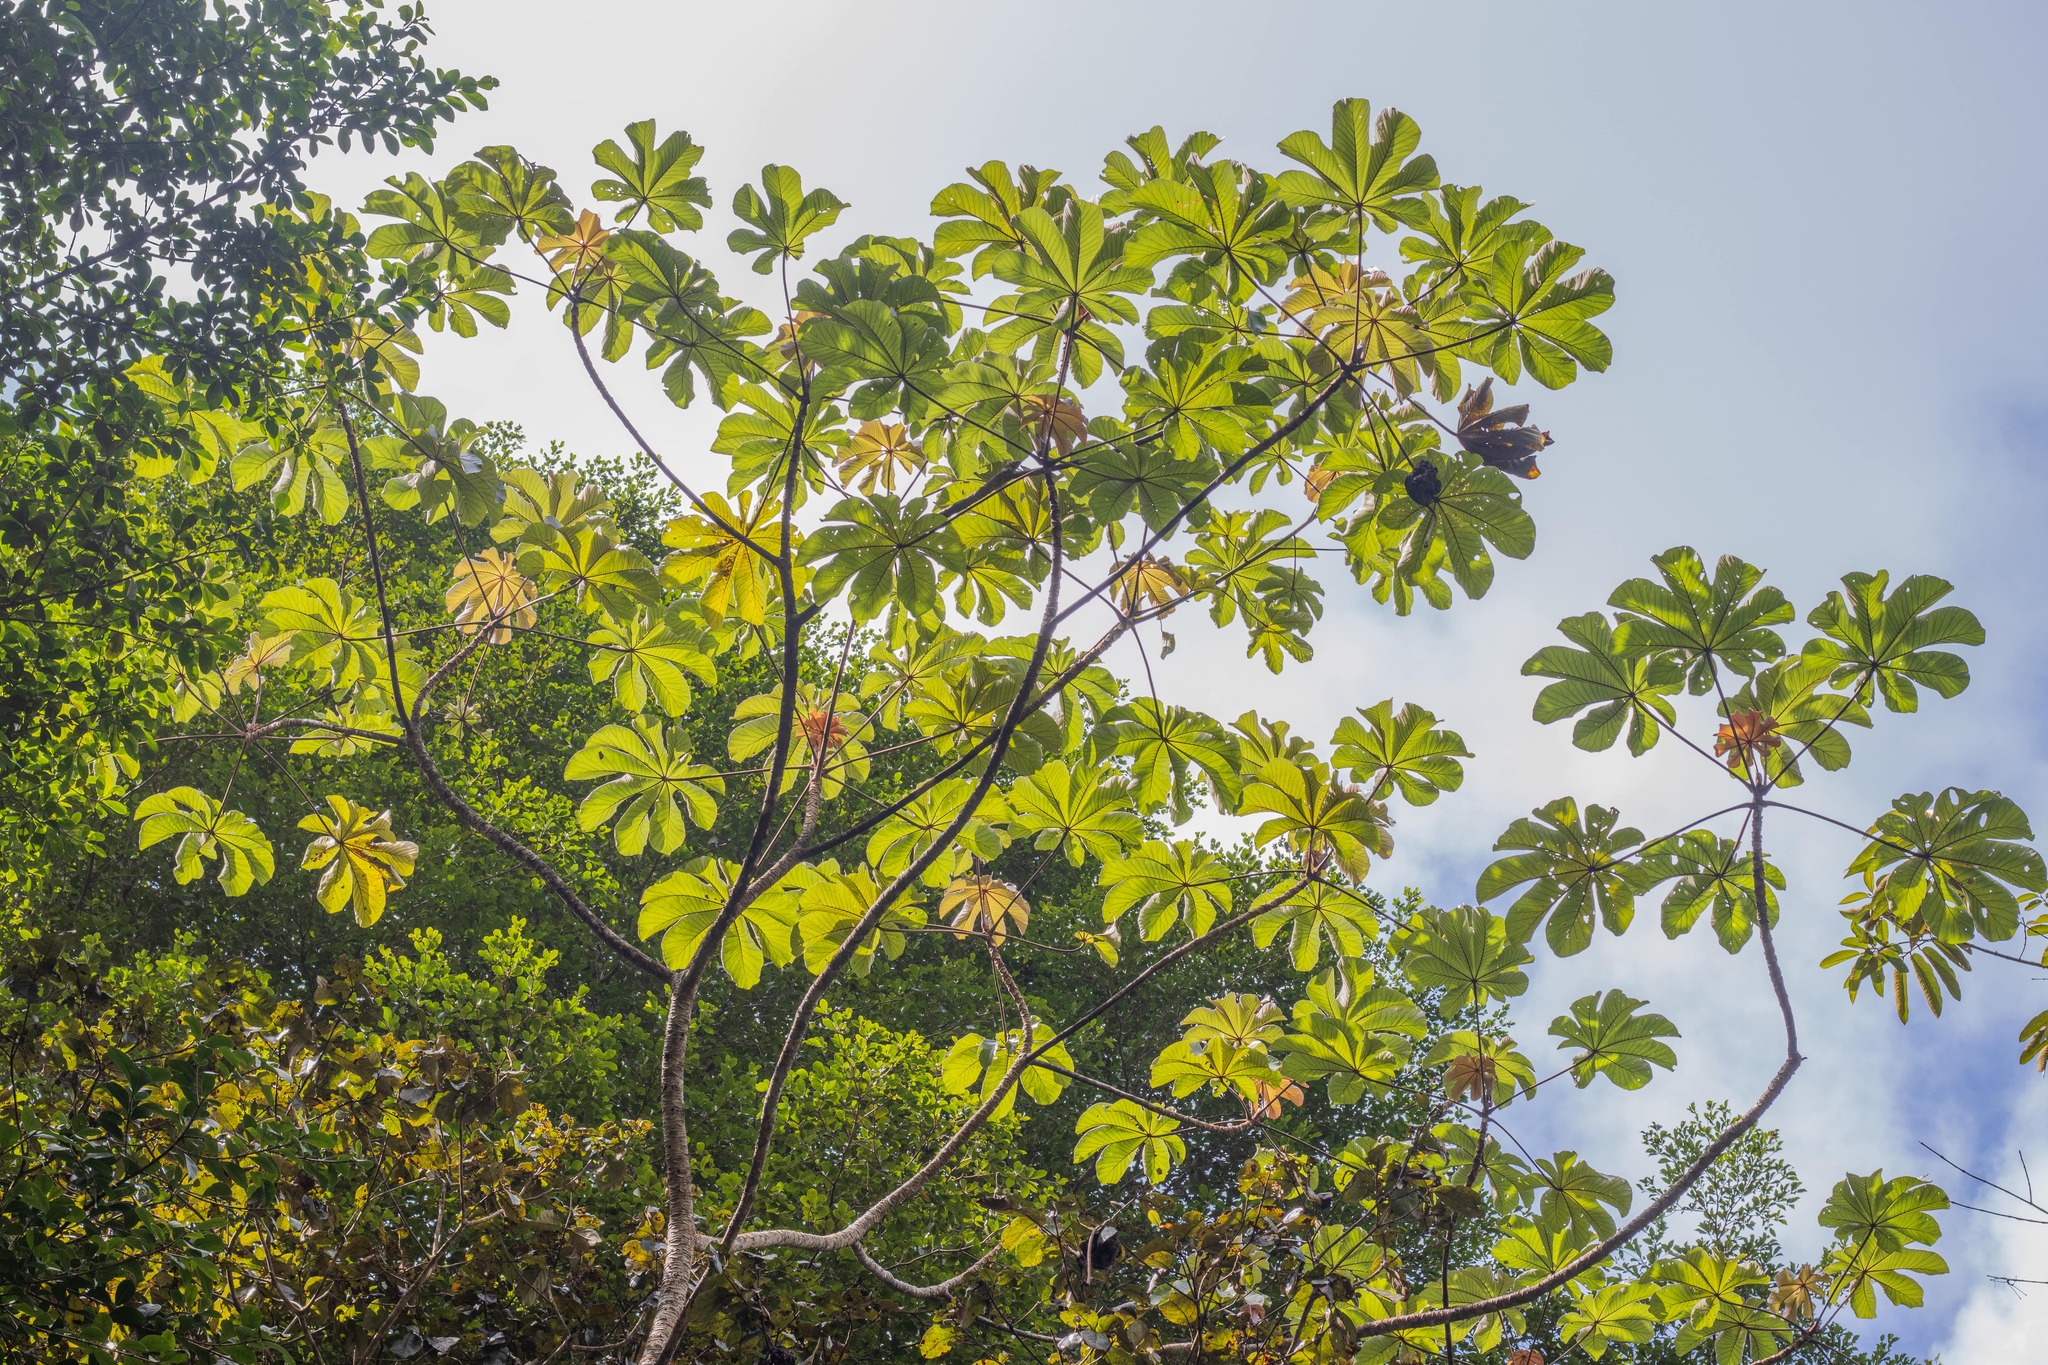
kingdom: Plantae
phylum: Tracheophyta
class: Magnoliopsida
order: Rosales
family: Urticaceae
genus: Cecropia
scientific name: Cecropia peltata
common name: Trumpet-tree
